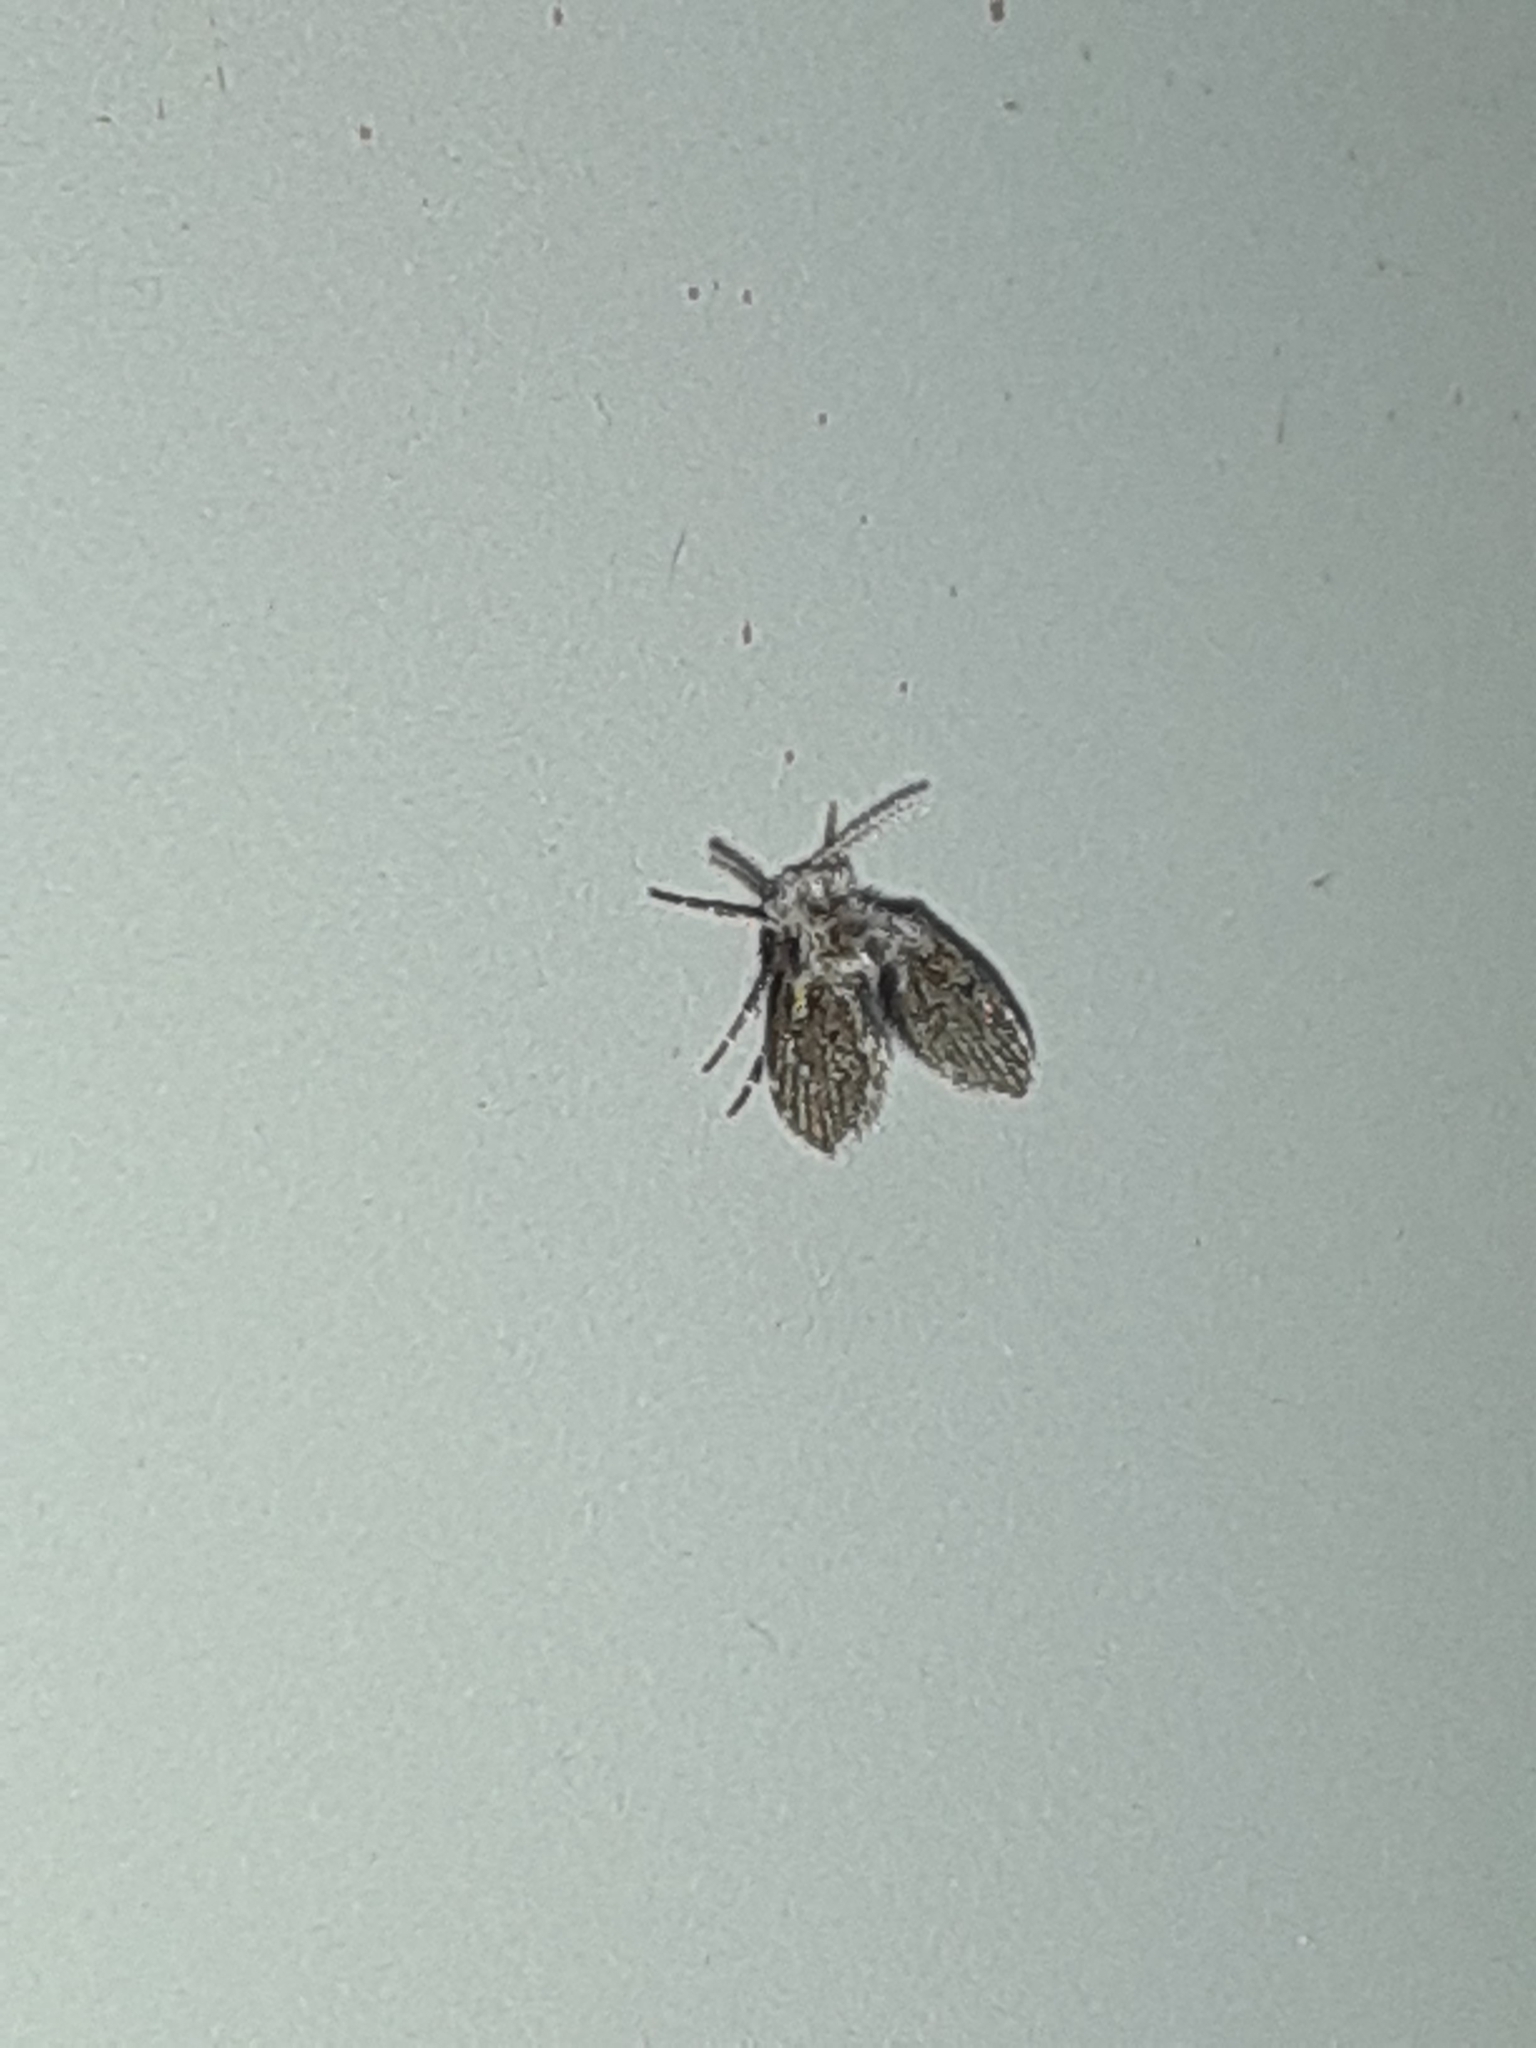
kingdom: Animalia
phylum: Arthropoda
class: Insecta
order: Diptera
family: Psychodidae
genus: Clogmia
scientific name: Clogmia albipunctatus
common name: White-spotted moth fly
